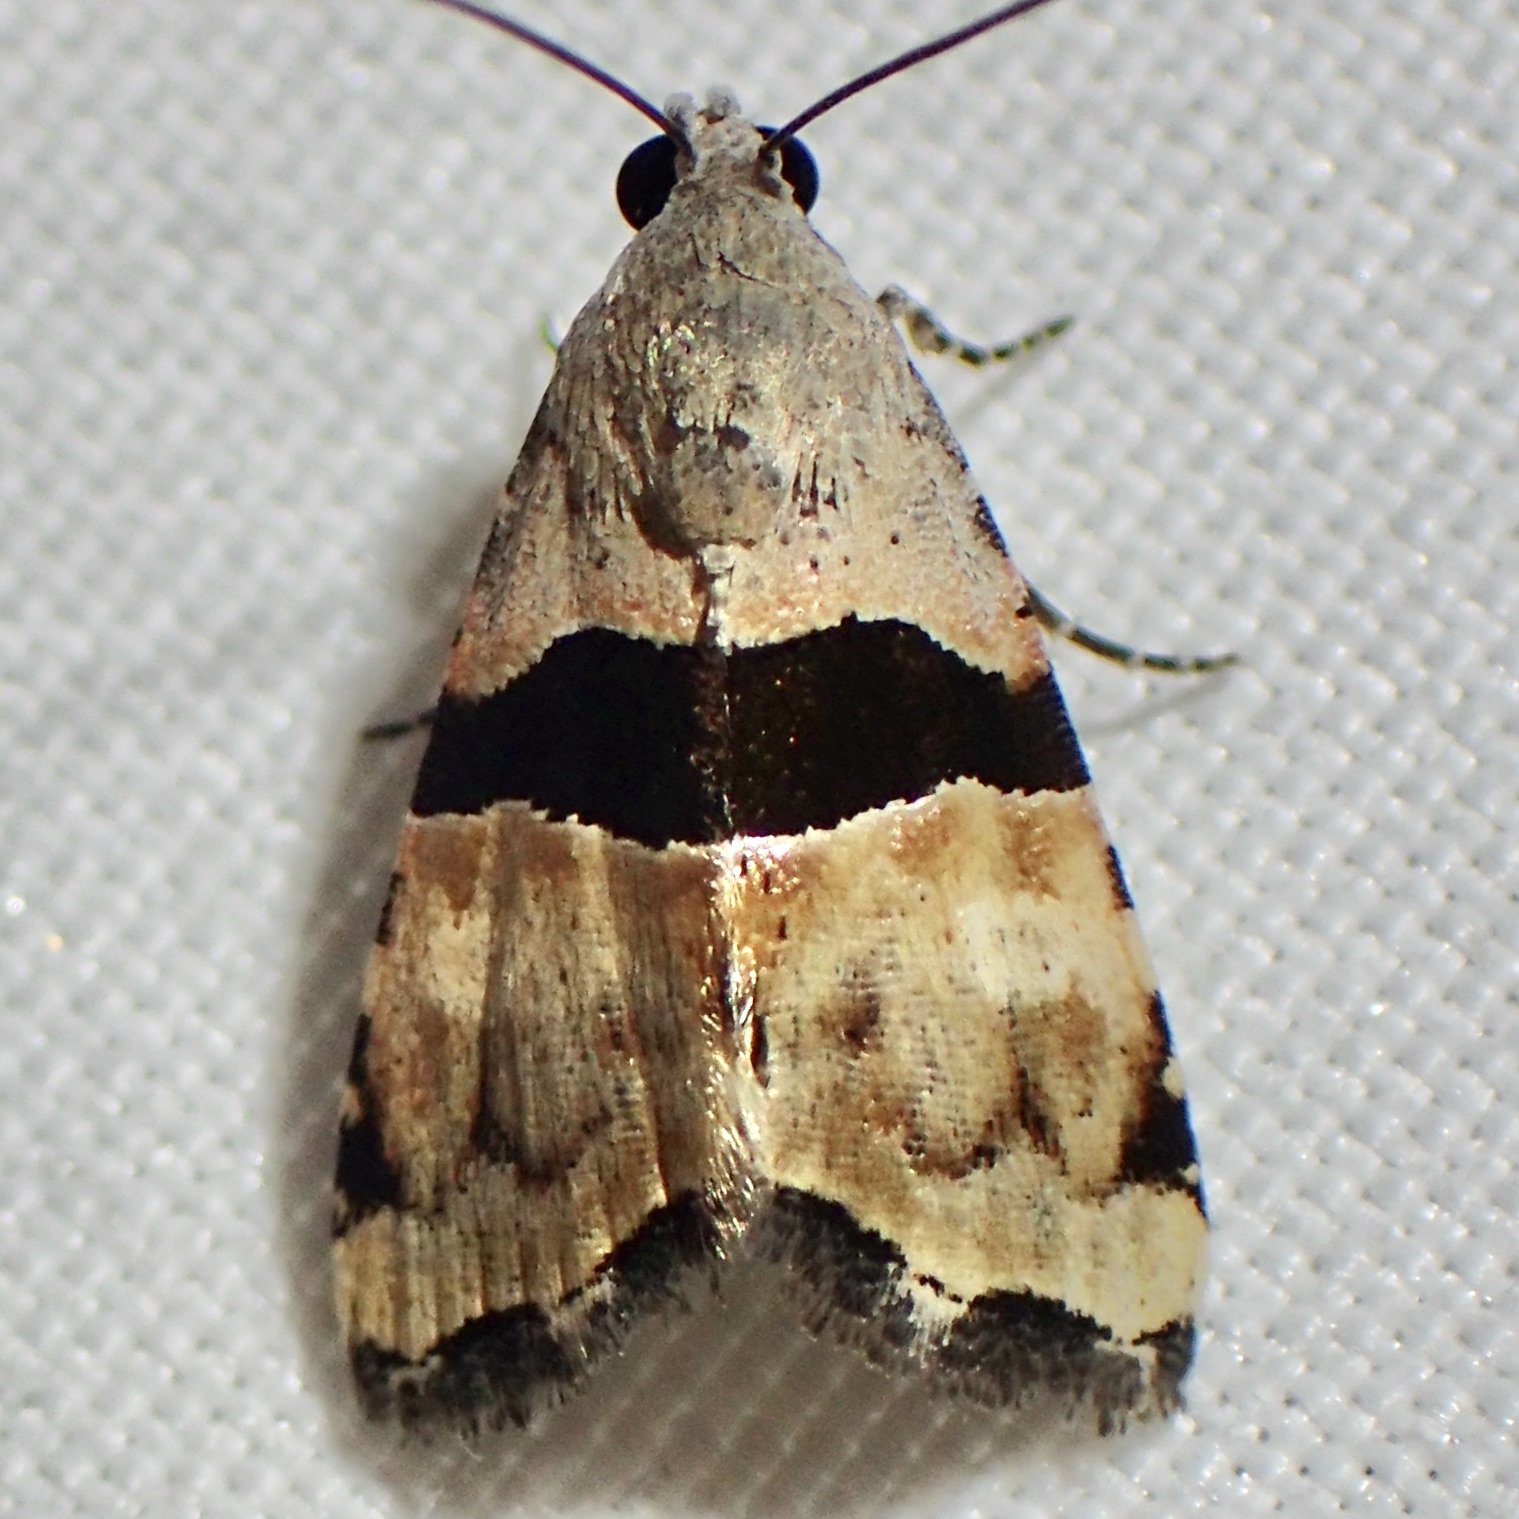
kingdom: Animalia
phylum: Arthropoda
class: Insecta
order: Lepidoptera
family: Noctuidae
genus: Cobubatha
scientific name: Cobubatha lixiva
